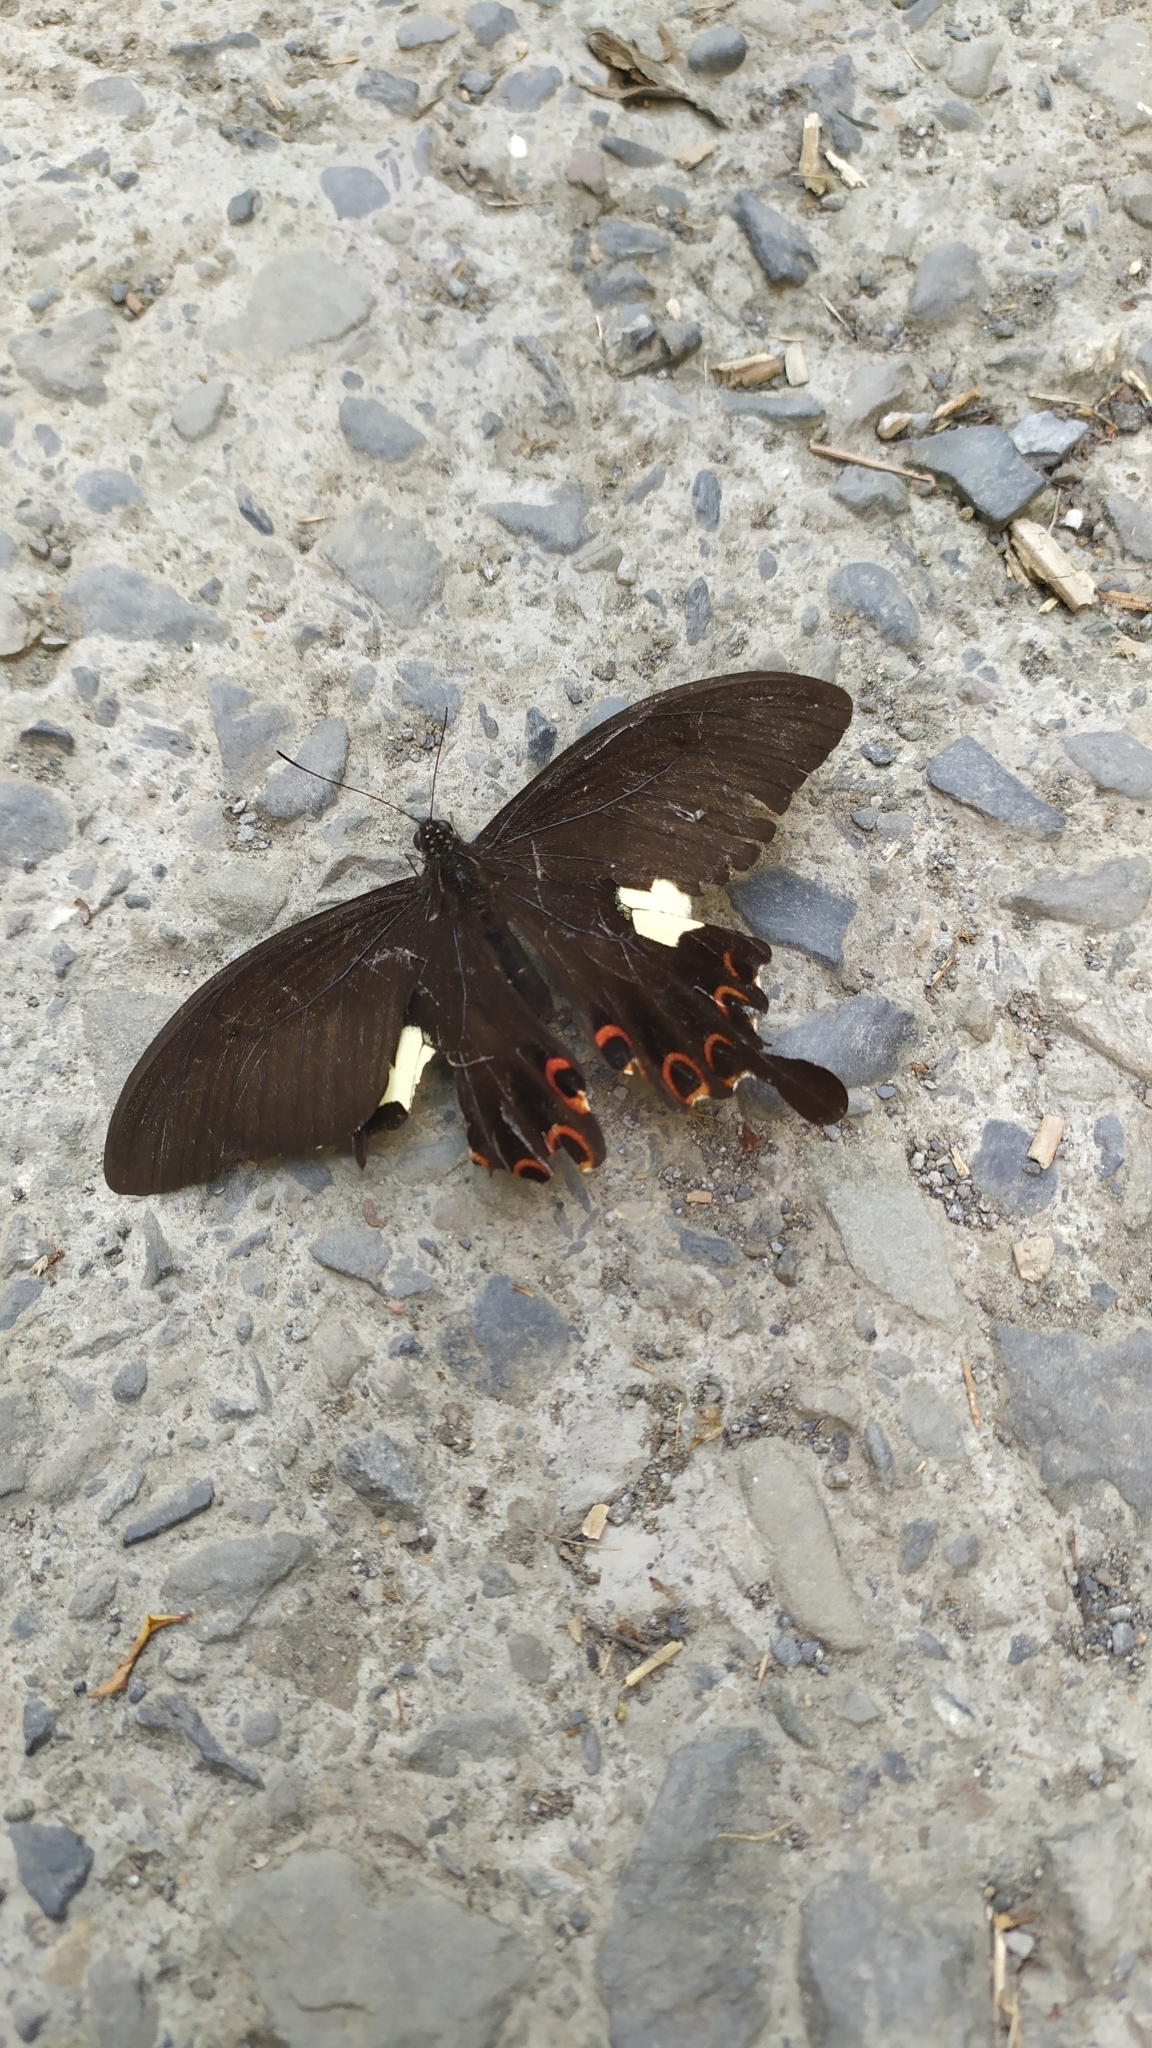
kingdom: Animalia
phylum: Arthropoda
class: Insecta
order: Lepidoptera
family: Papilionidae
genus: Papilio
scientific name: Papilio helenus
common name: Red helen
